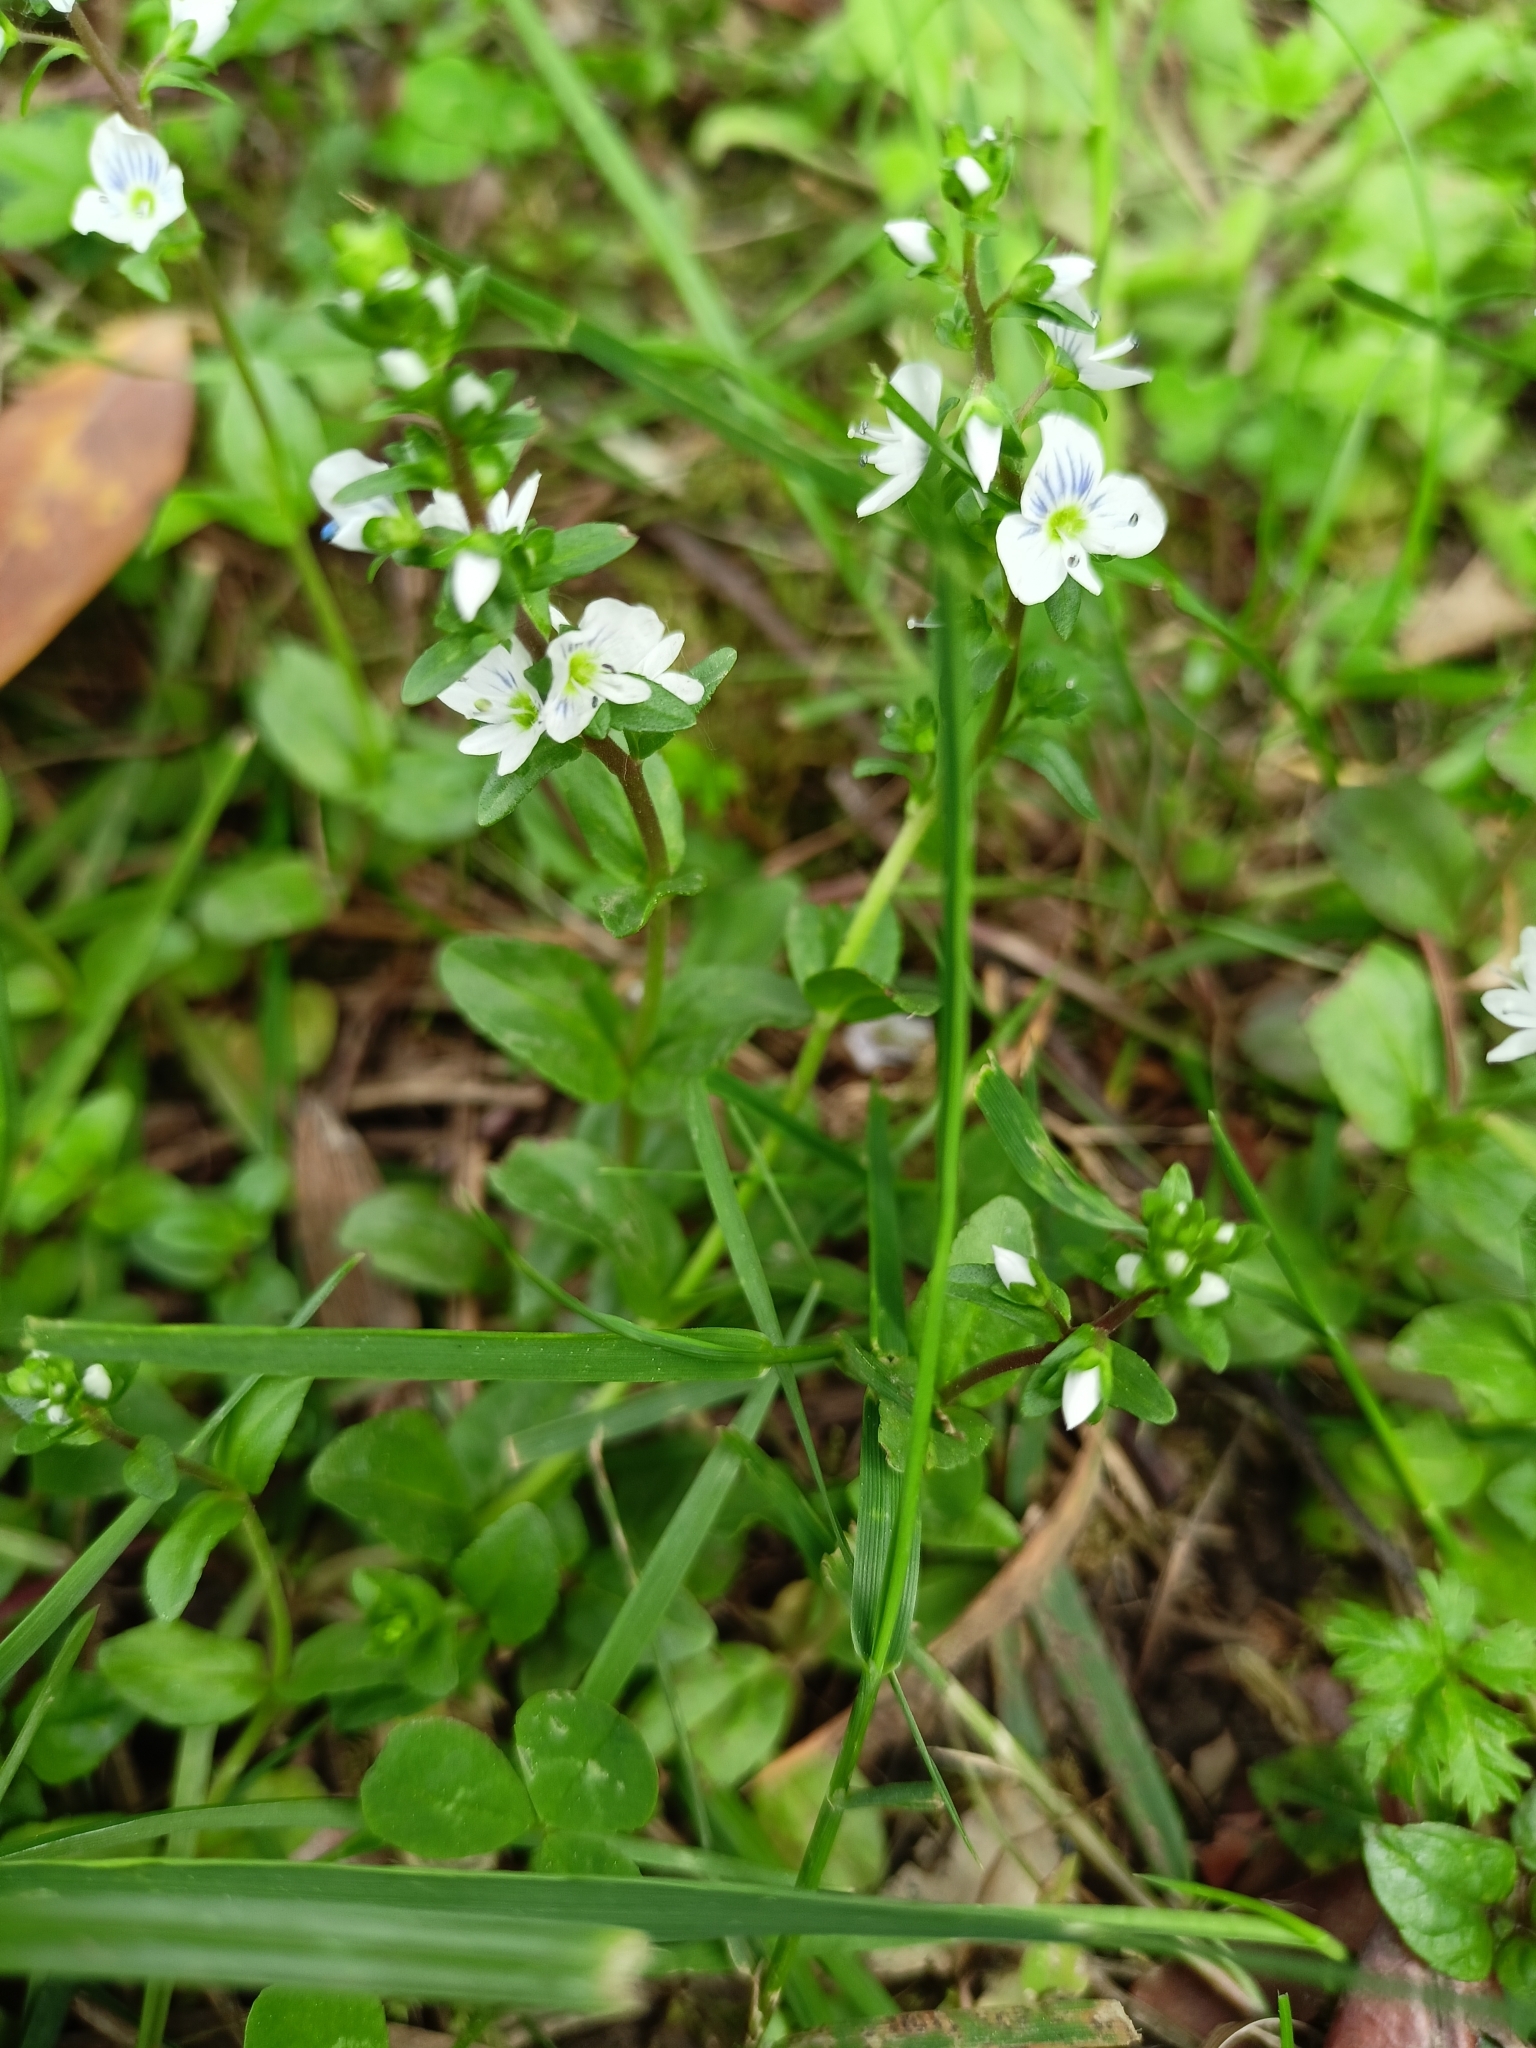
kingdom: Plantae
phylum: Tracheophyta
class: Magnoliopsida
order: Lamiales
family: Plantaginaceae
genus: Veronica
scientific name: Veronica serpyllifolia
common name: Thyme-leaved speedwell
